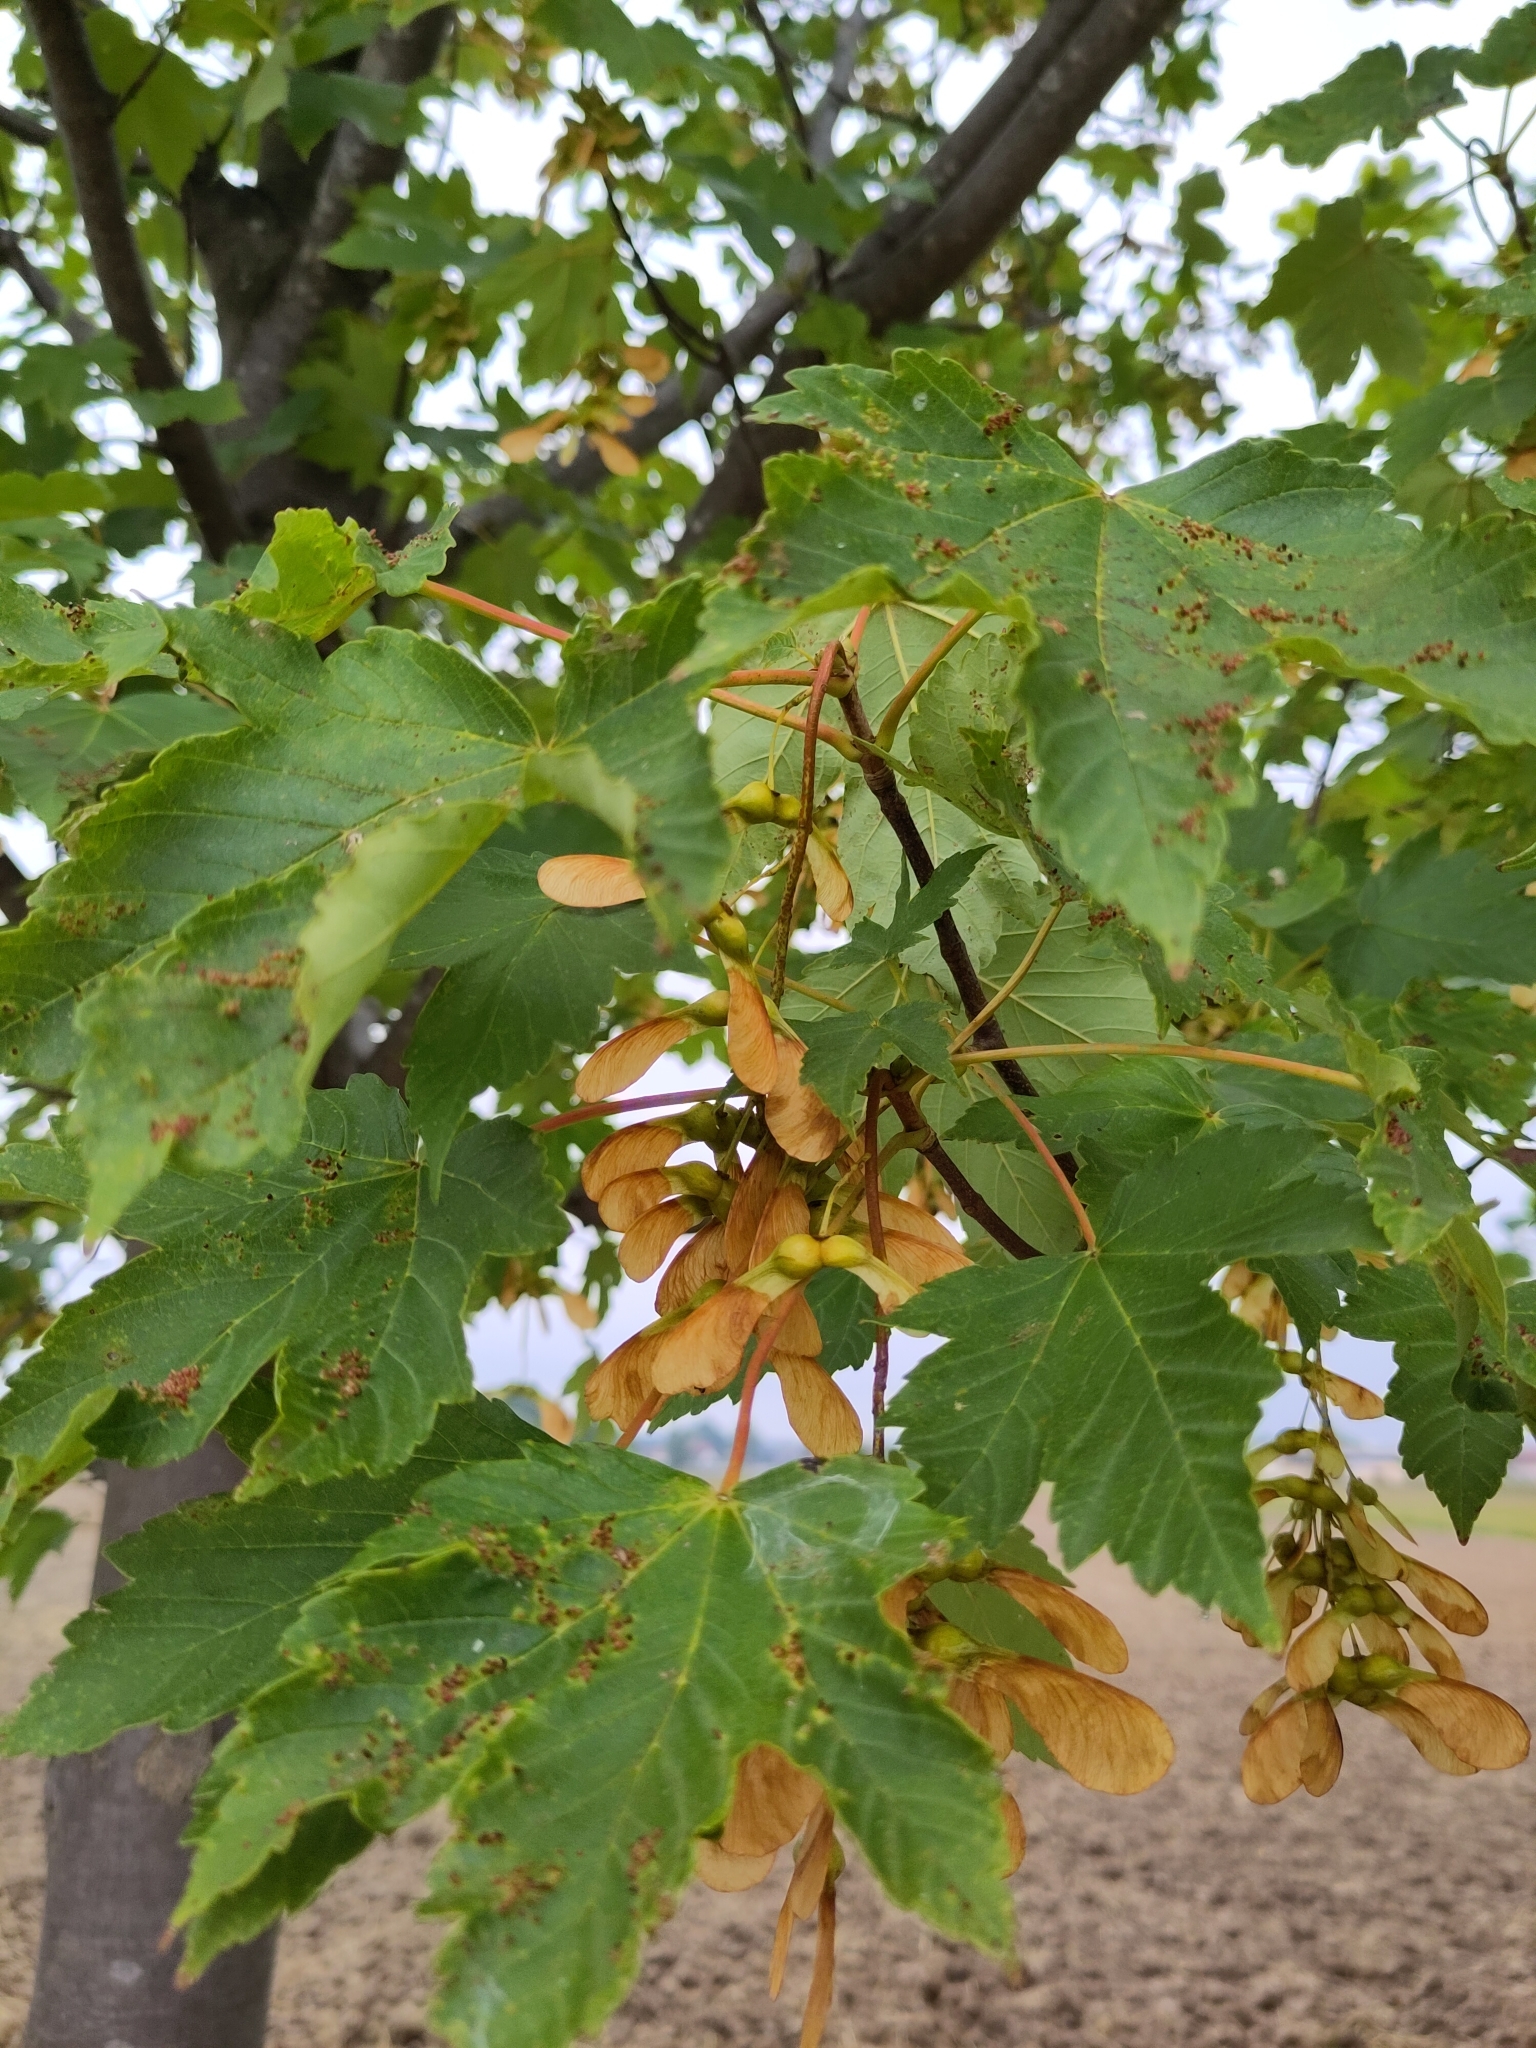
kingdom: Plantae
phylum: Tracheophyta
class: Magnoliopsida
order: Sapindales
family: Sapindaceae
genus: Acer
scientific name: Acer pseudoplatanus
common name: Sycamore
